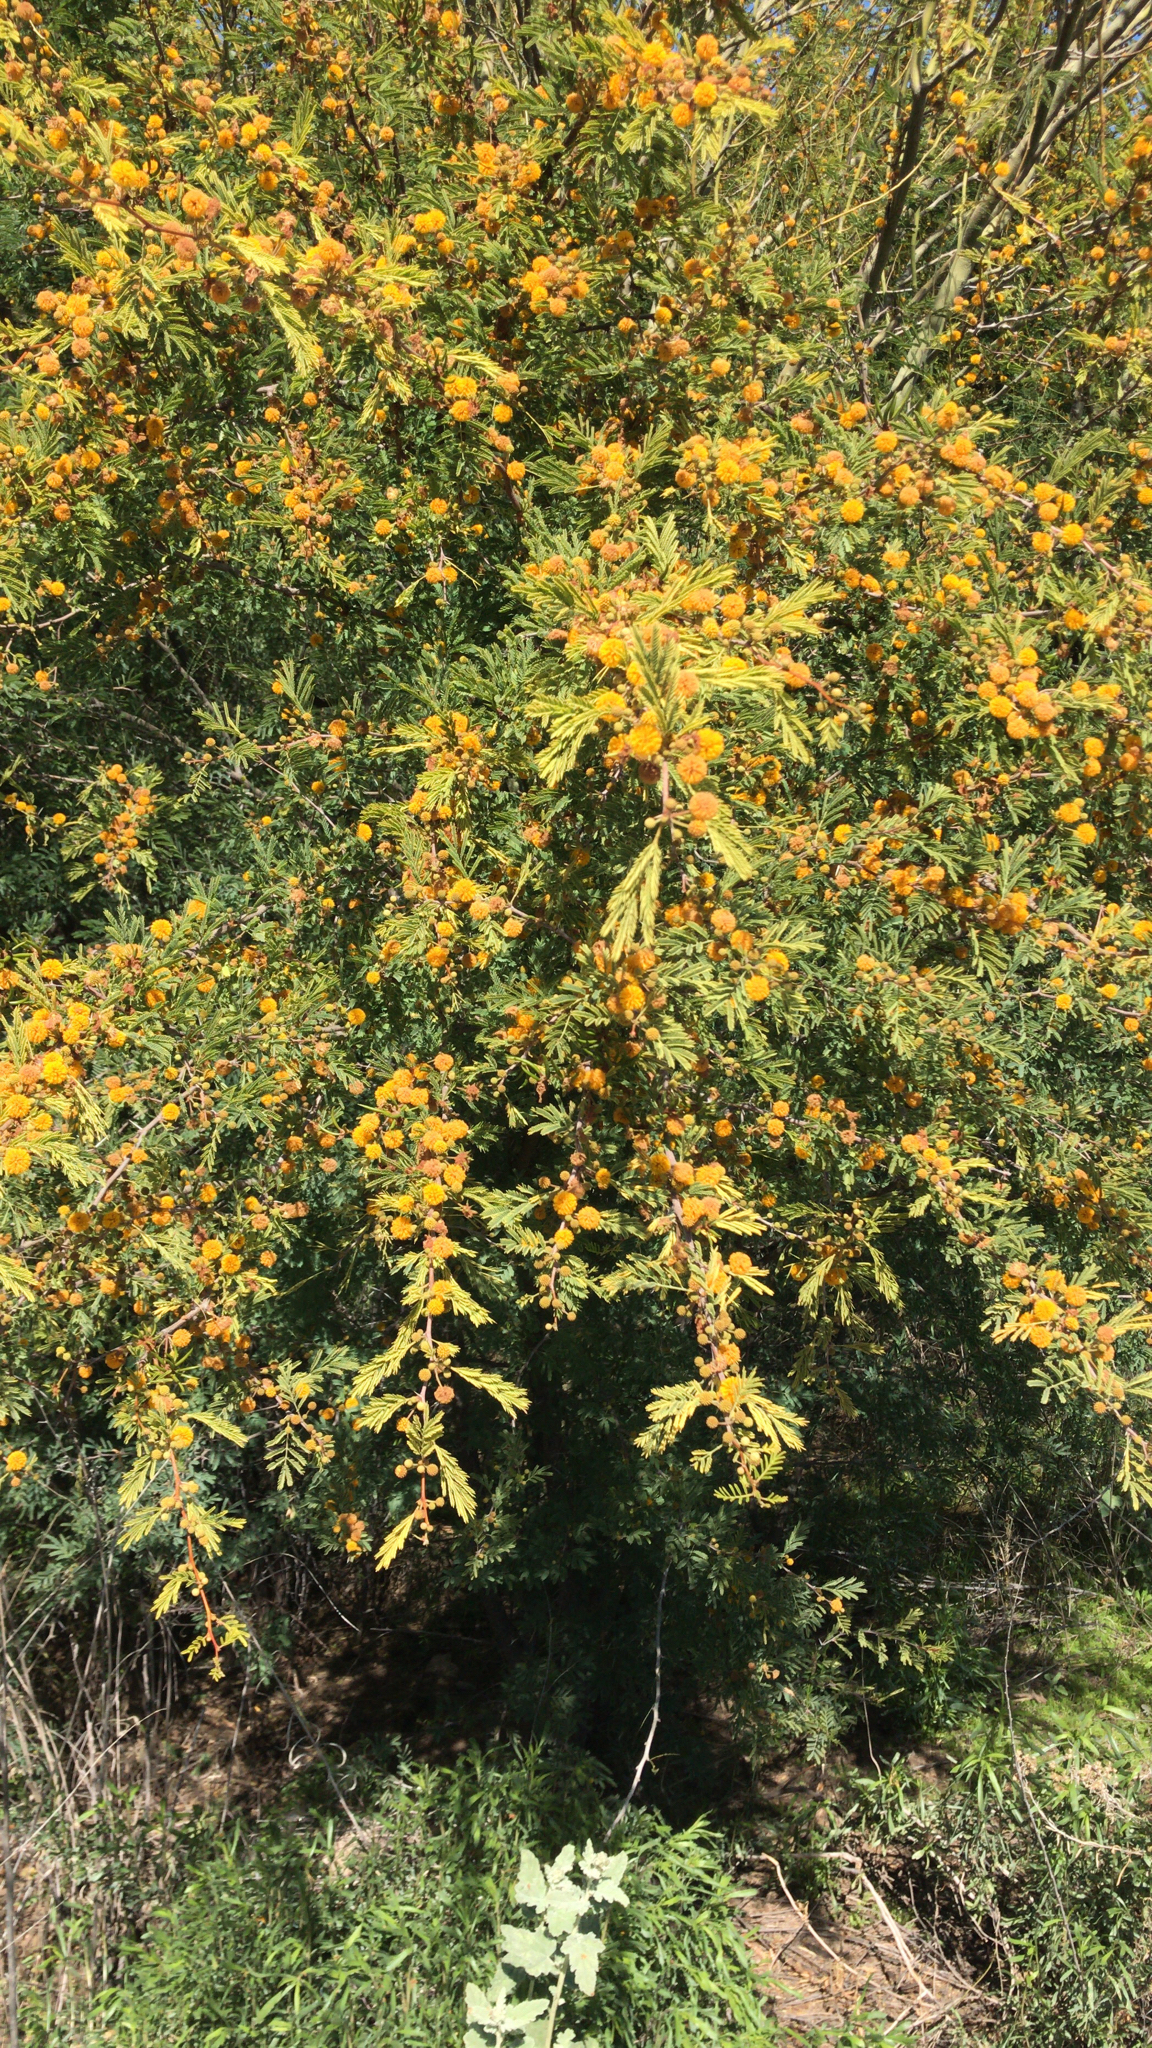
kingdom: Plantae
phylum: Tracheophyta
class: Magnoliopsida
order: Fabales
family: Fabaceae
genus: Vachellia
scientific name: Vachellia farnesiana
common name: Sweet acacia
